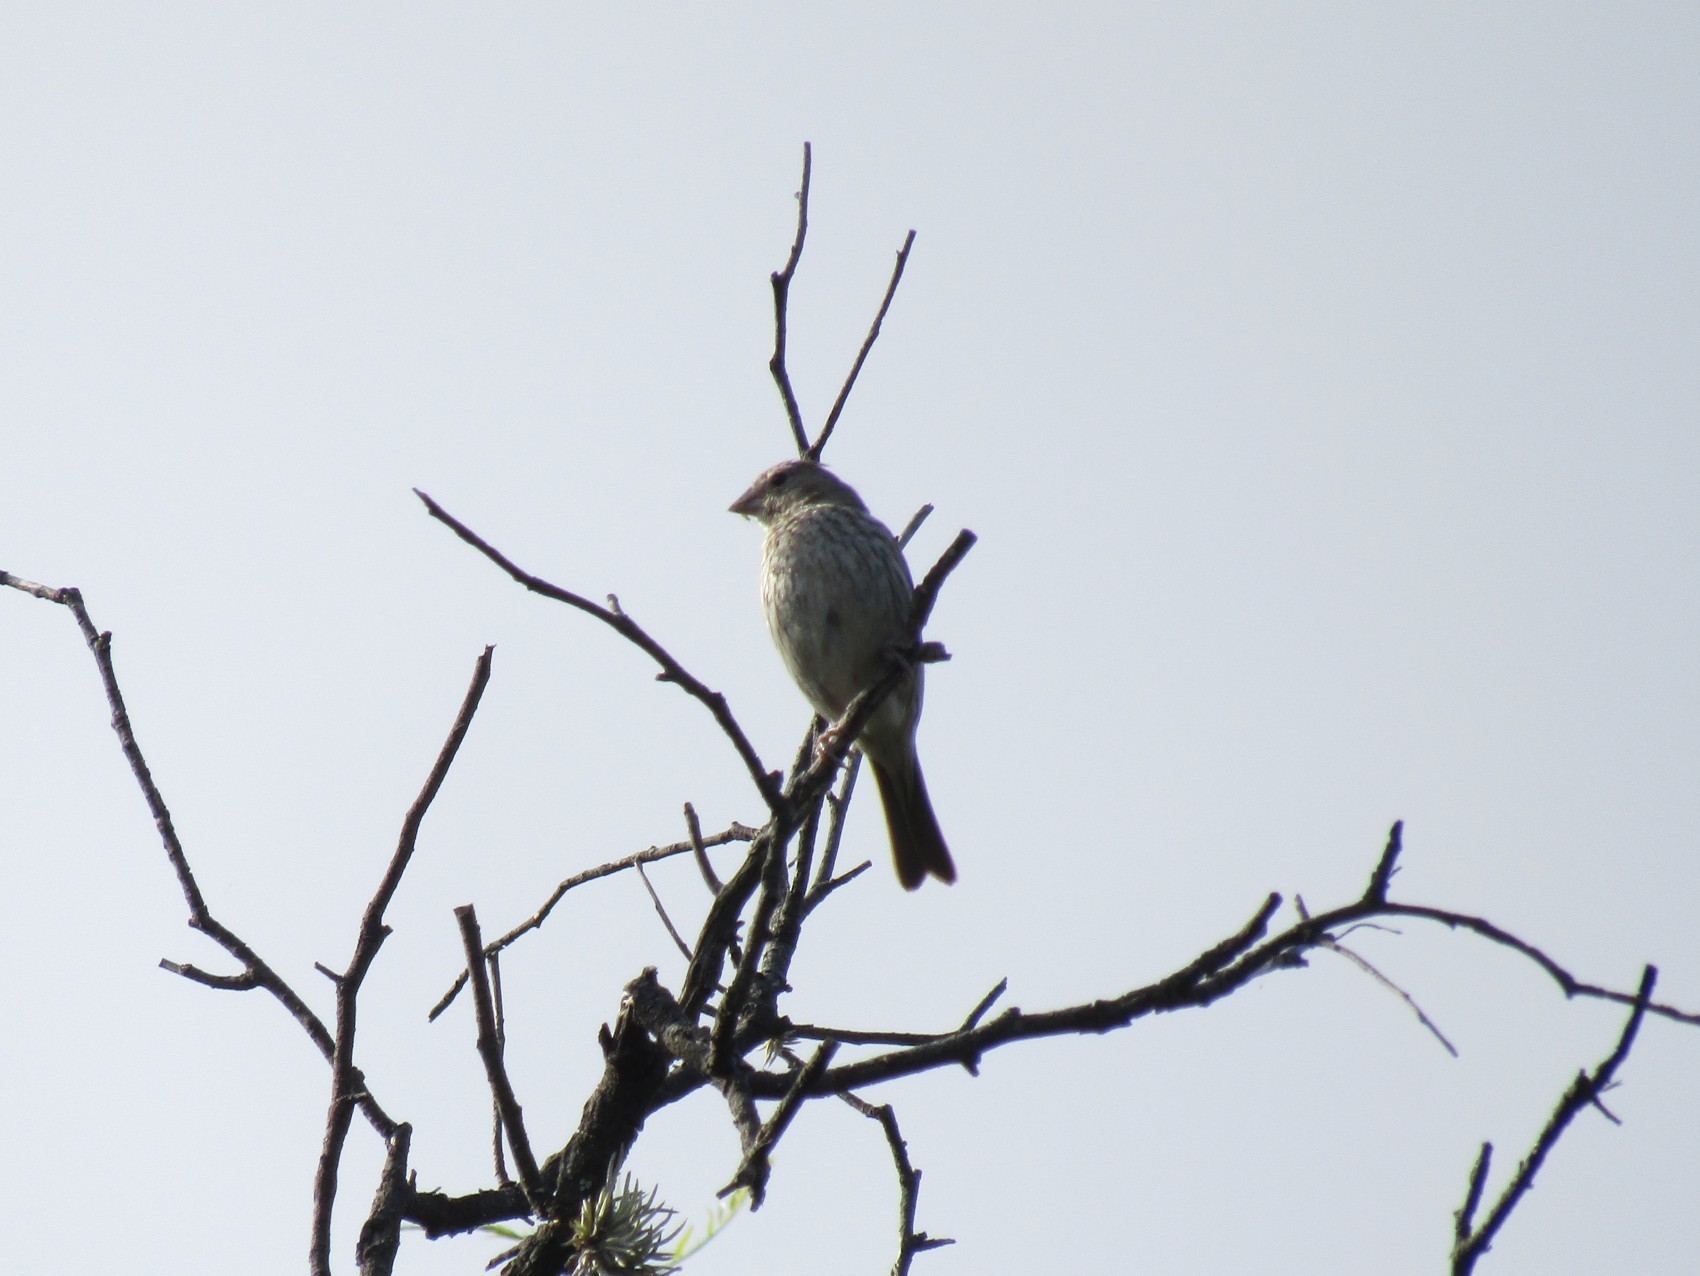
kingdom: Animalia
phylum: Chordata
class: Aves
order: Passeriformes
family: Thraupidae
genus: Sicalis
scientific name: Sicalis flaveola
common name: Saffron finch
